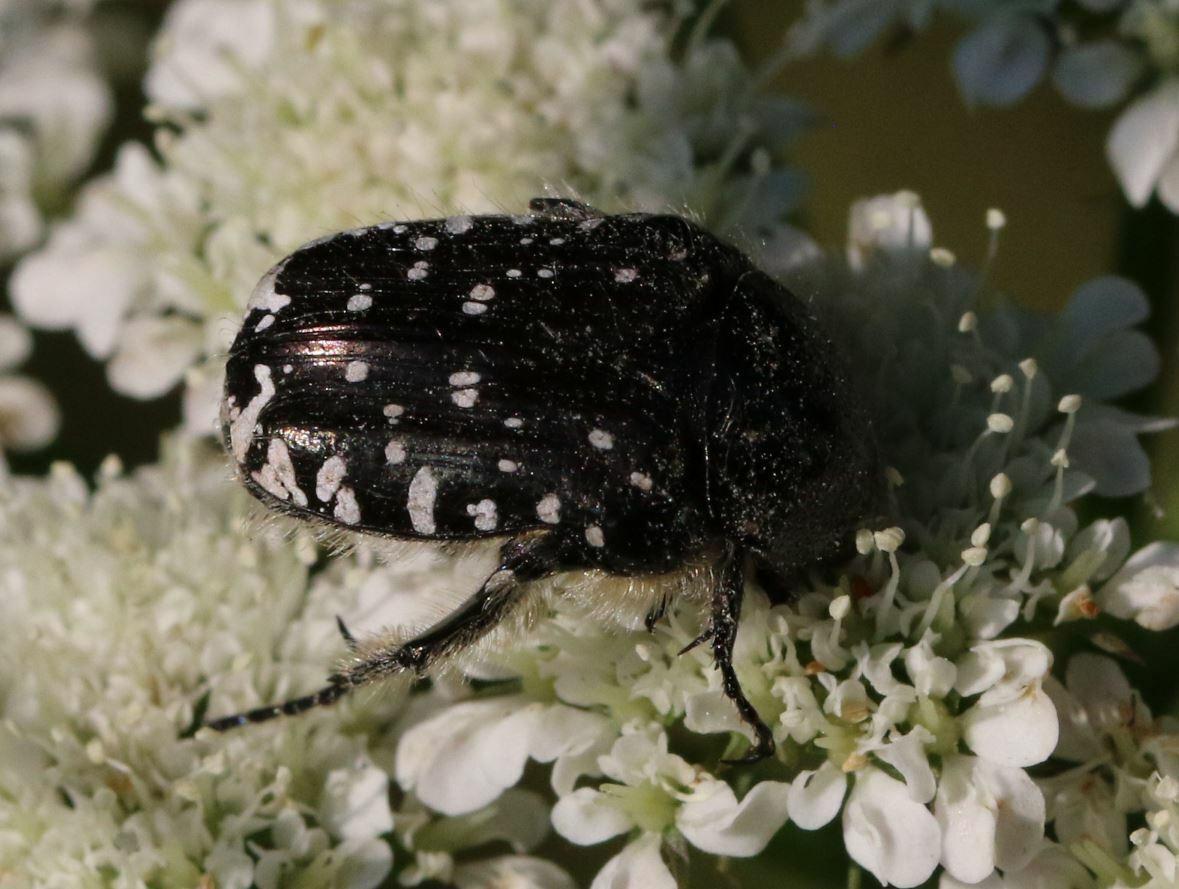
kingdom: Animalia
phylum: Arthropoda
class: Insecta
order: Coleoptera
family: Scarabaeidae
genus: Oxythyrea
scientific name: Oxythyrea funesta
